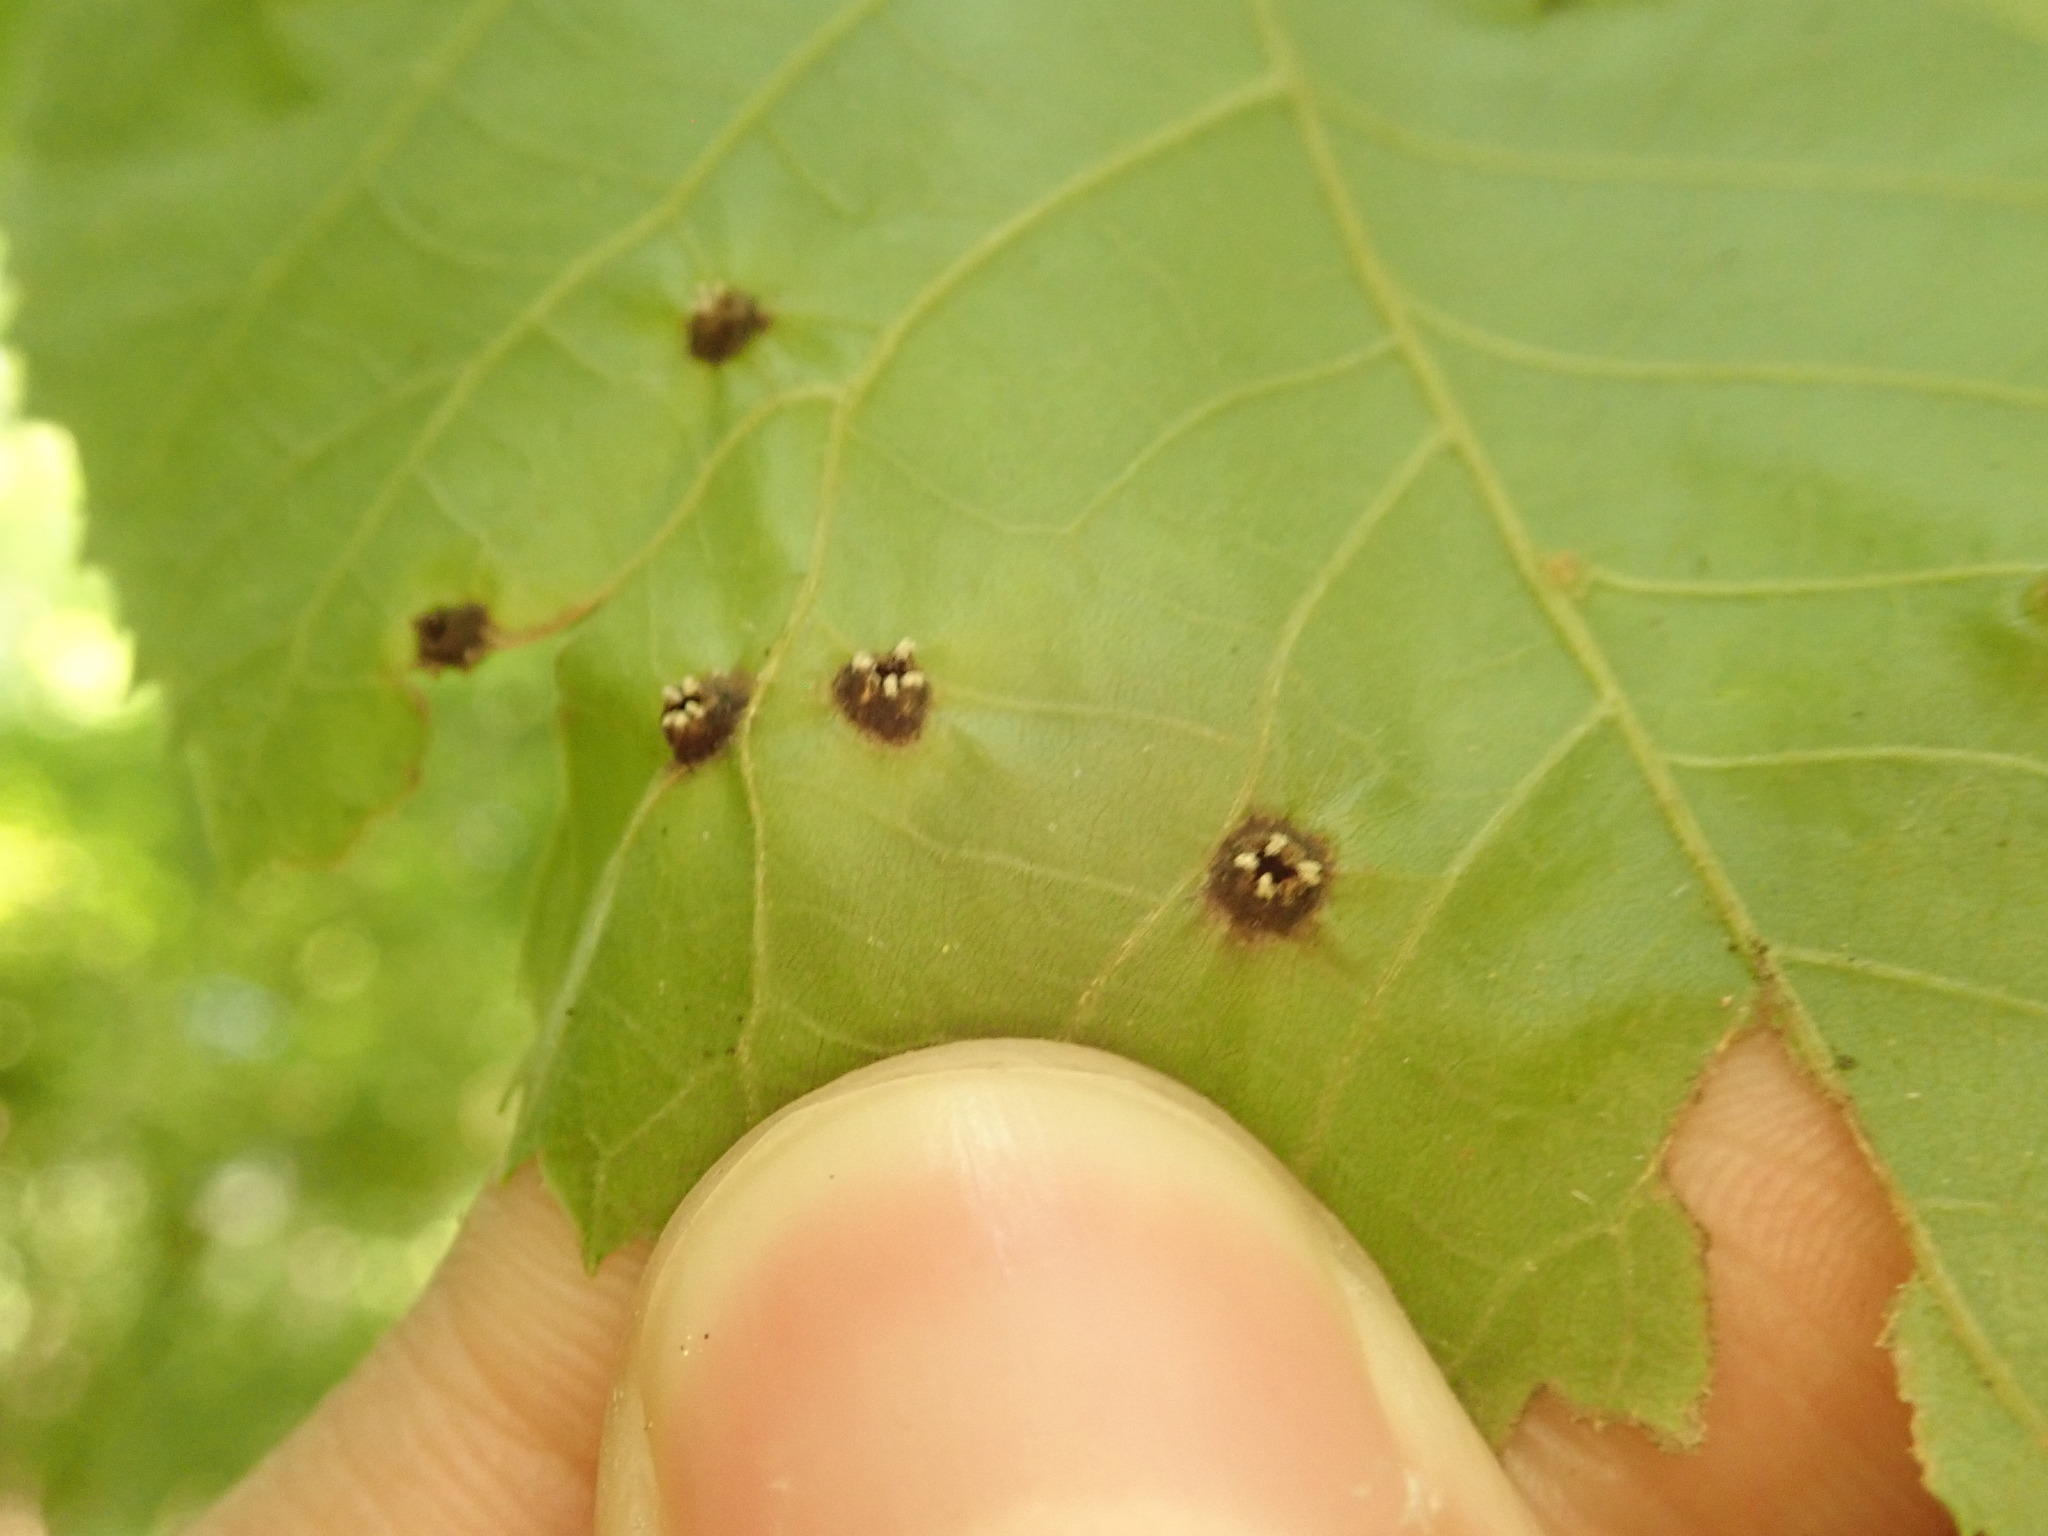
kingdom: Animalia
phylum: Arthropoda
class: Insecta
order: Hemiptera
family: Phylloxeridae
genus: Phylloxera
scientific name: Phylloxera caryae-semen
